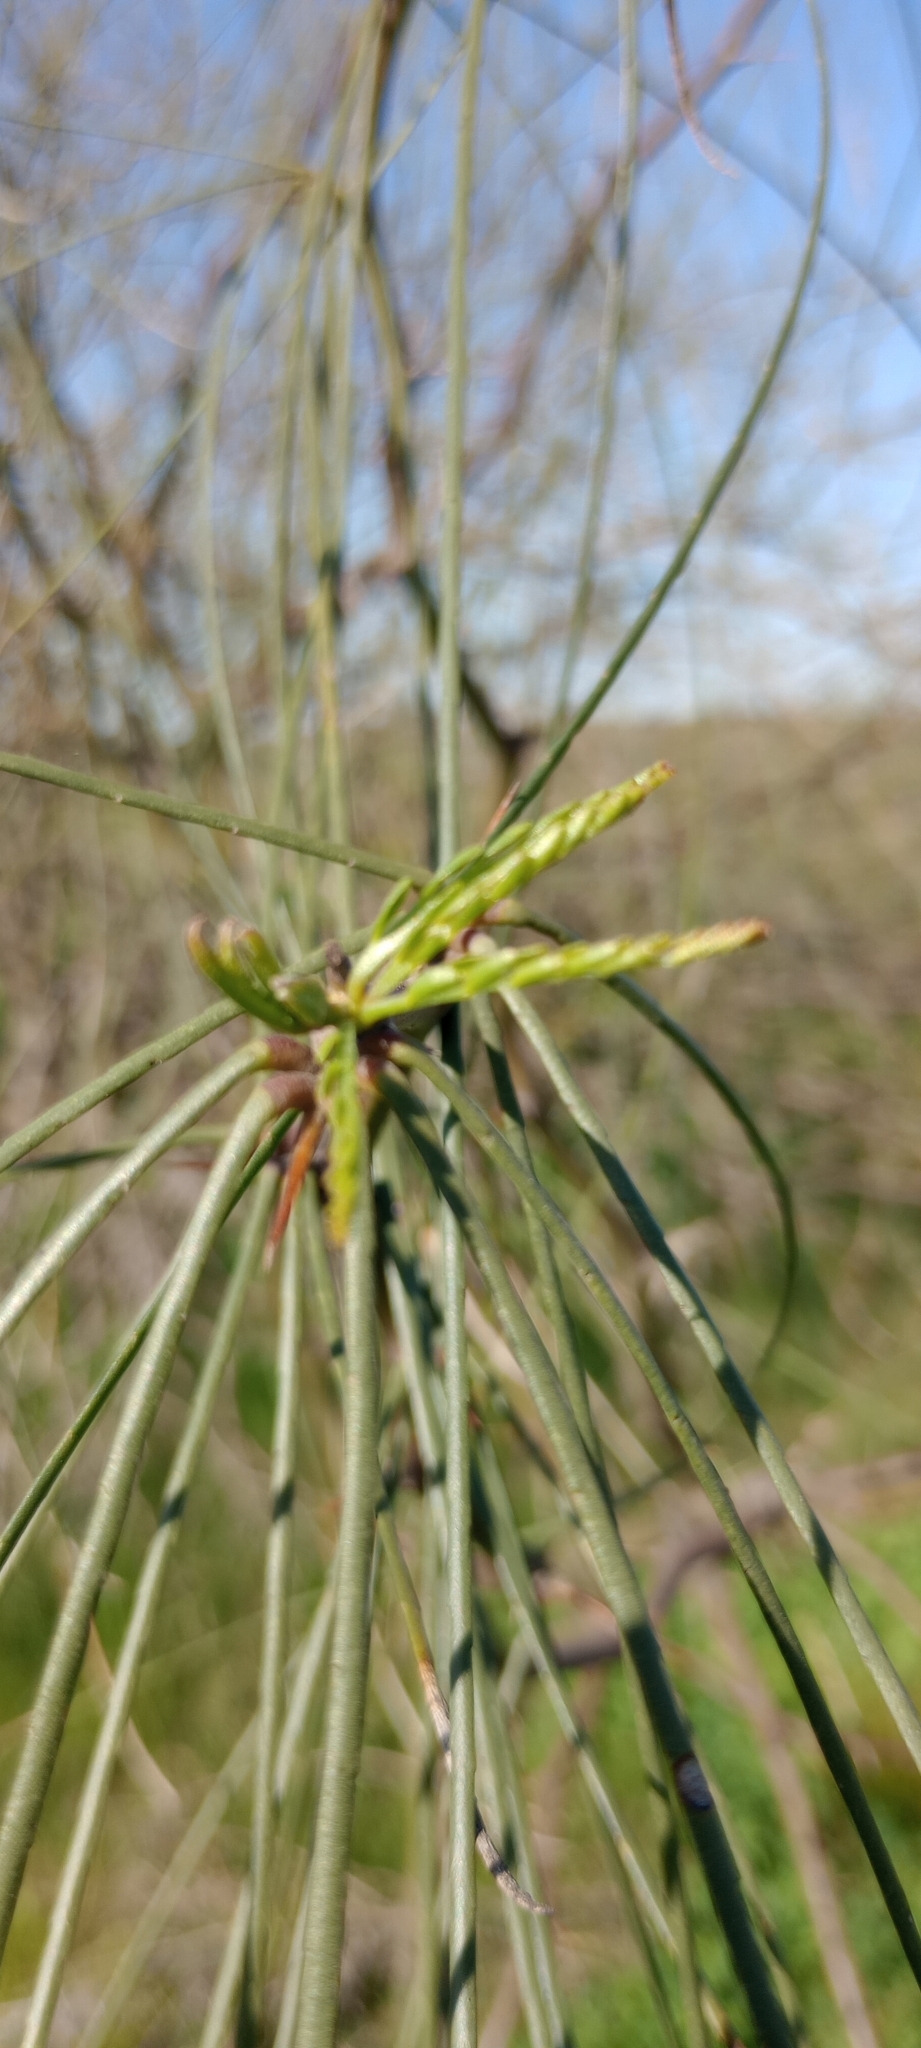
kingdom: Plantae
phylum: Tracheophyta
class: Magnoliopsida
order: Fabales
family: Fabaceae
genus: Parkinsonia
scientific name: Parkinsonia aculeata
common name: Jerusalem thorn
